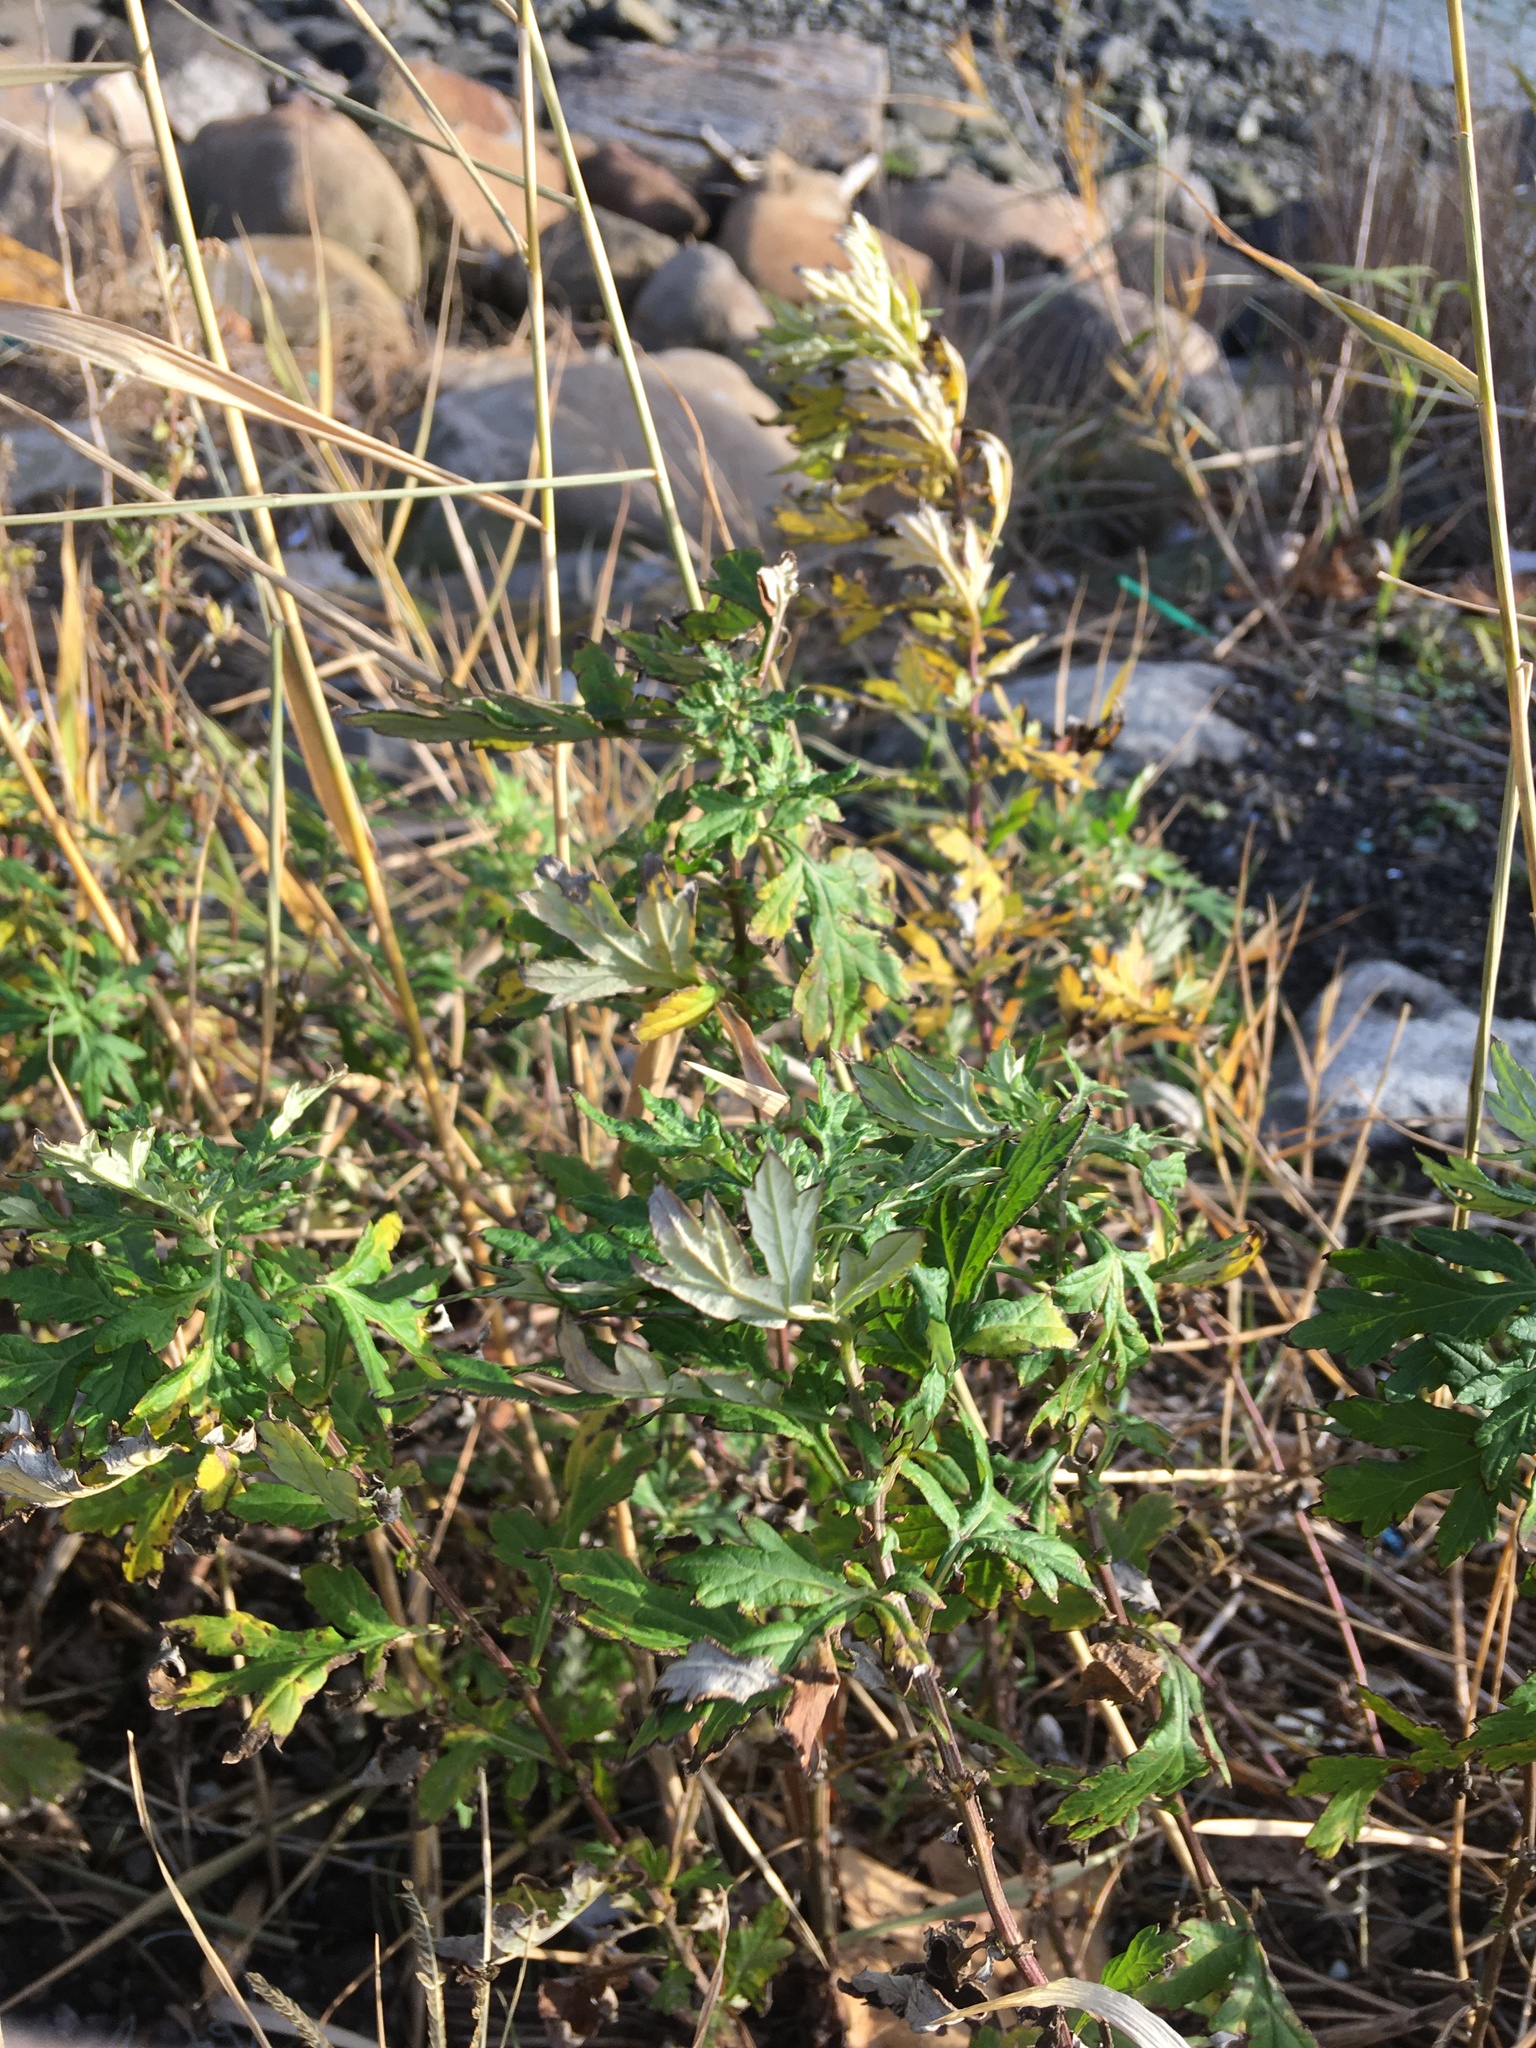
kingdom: Plantae
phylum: Tracheophyta
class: Magnoliopsida
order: Asterales
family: Asteraceae
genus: Artemisia
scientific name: Artemisia vulgaris
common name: Mugwort
